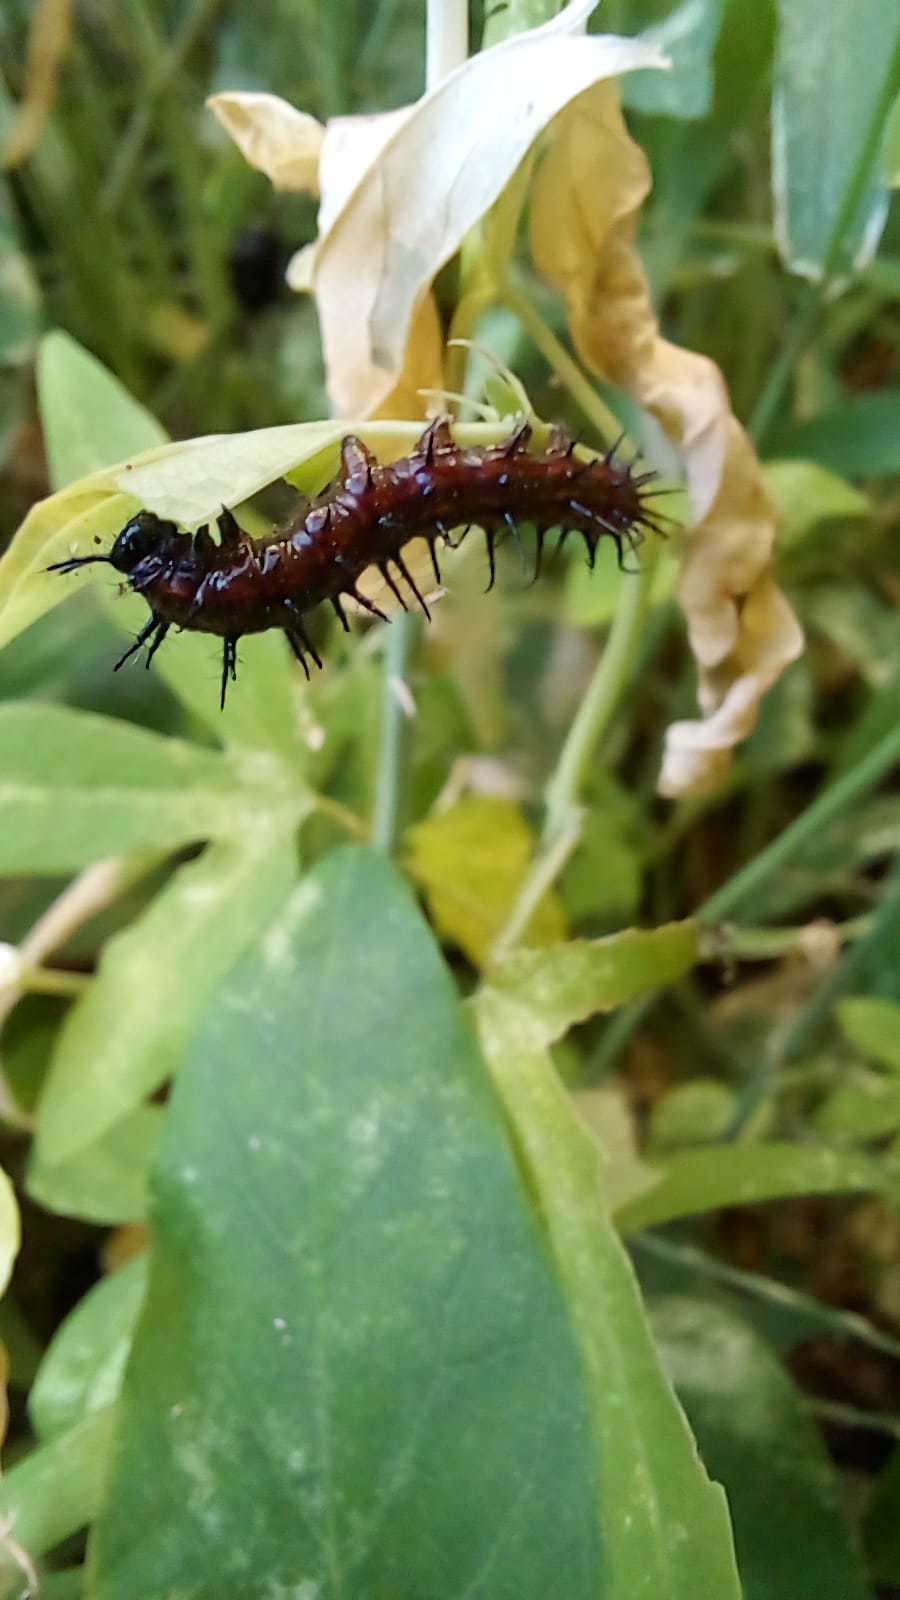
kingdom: Animalia
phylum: Arthropoda
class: Insecta
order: Lepidoptera
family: Nymphalidae
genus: Dione
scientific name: Dione vanillae
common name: Gulf fritillary
